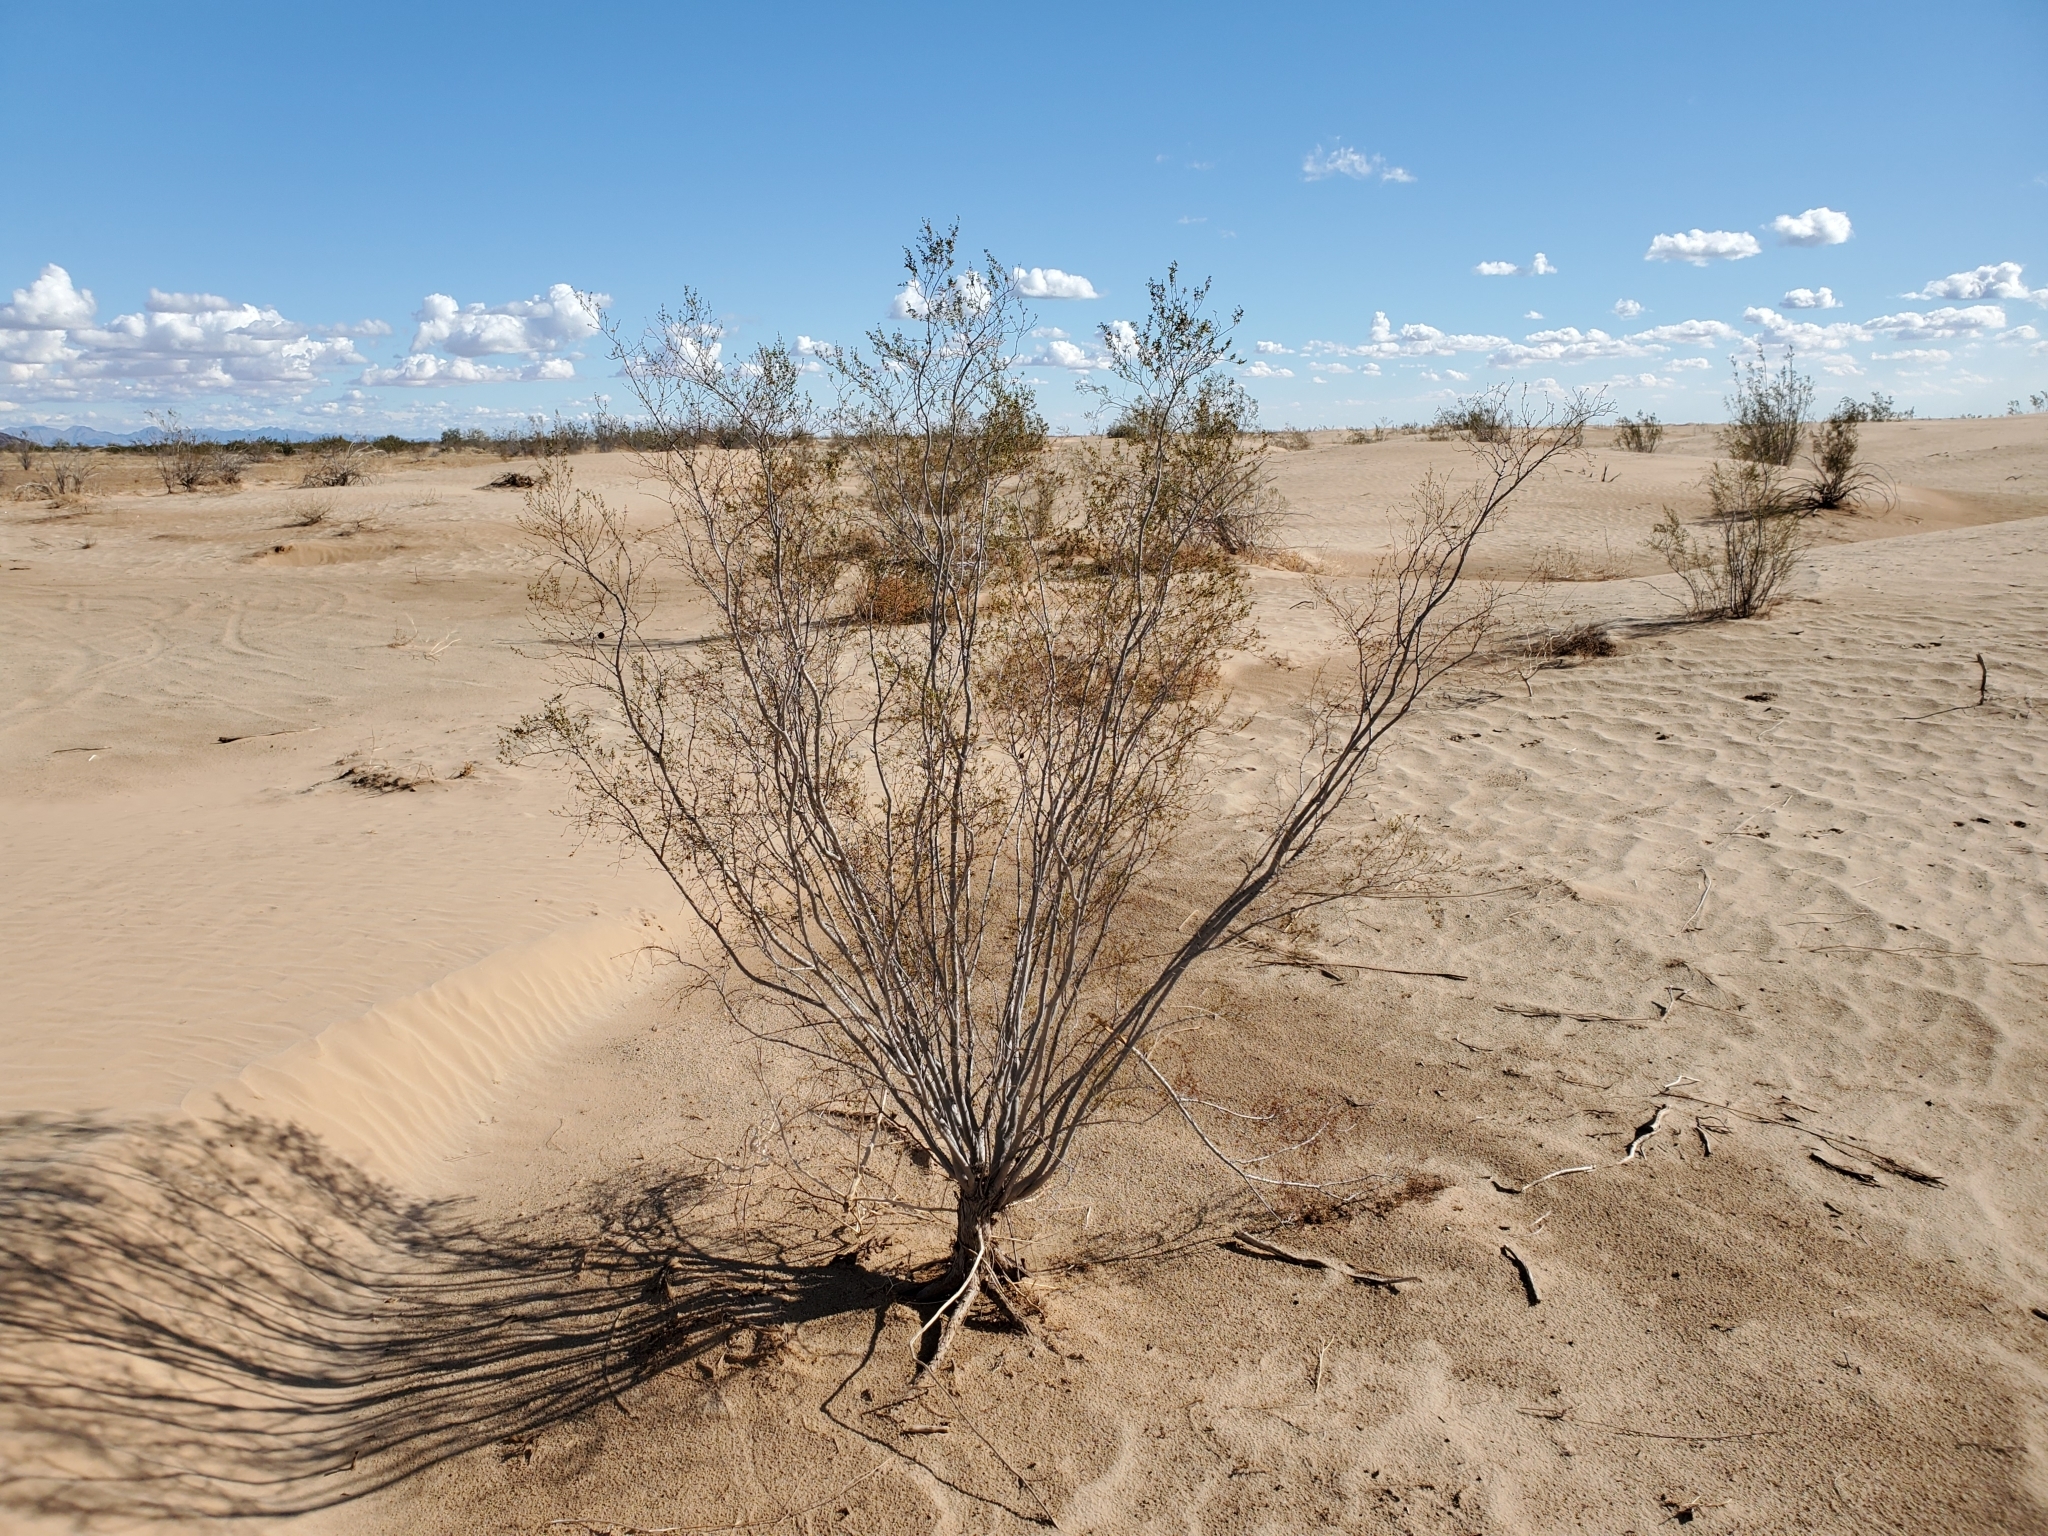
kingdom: Plantae
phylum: Tracheophyta
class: Magnoliopsida
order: Zygophyllales
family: Zygophyllaceae
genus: Larrea
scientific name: Larrea tridentata
